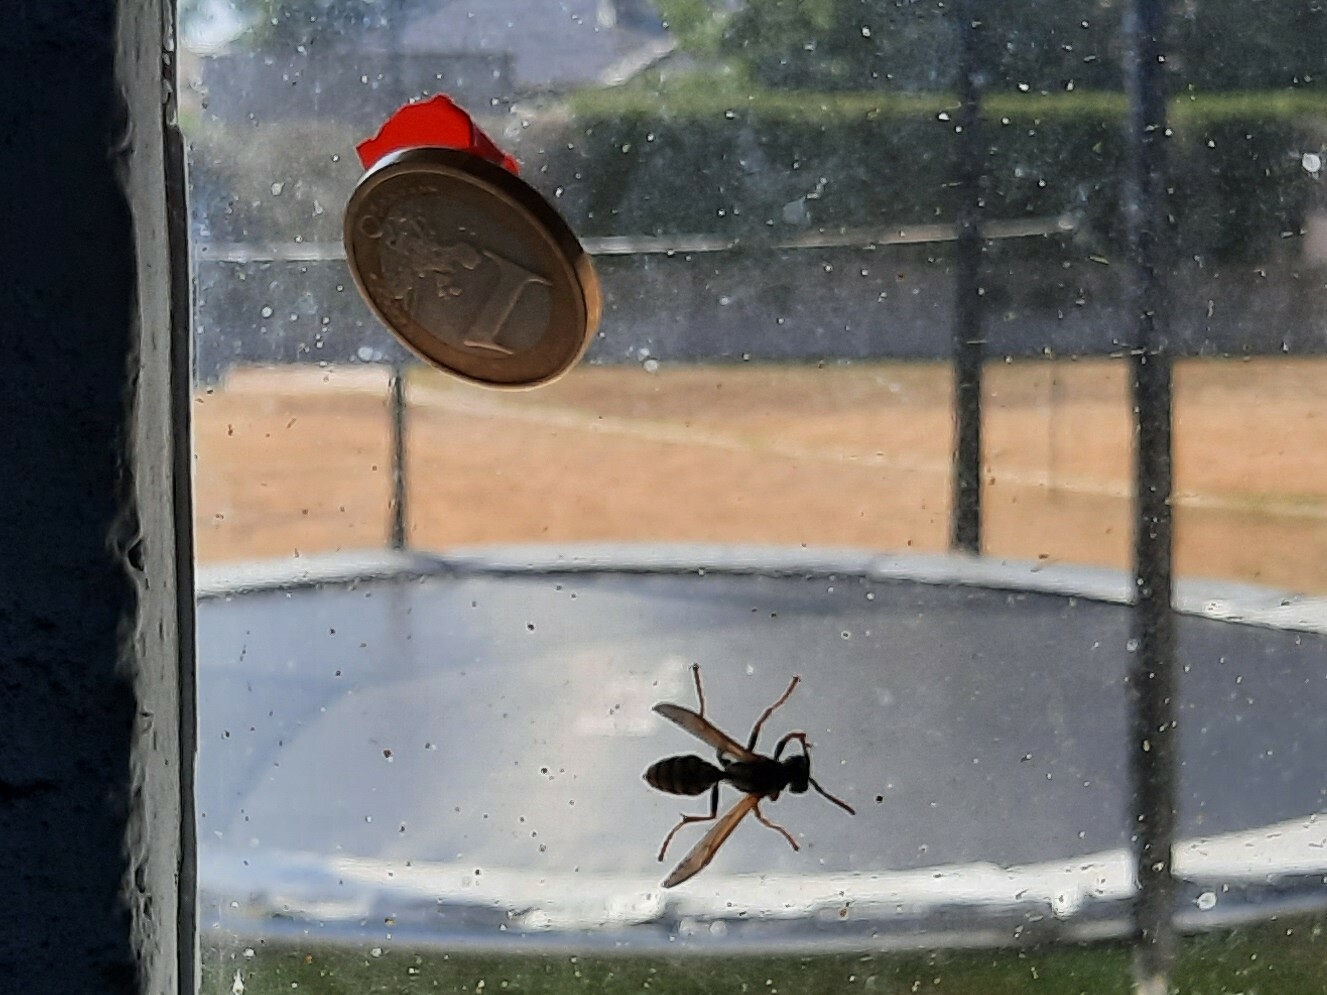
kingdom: Animalia
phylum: Arthropoda
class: Insecta
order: Hymenoptera
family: Eumenidae
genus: Polistes
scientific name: Polistes dominula
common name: Paper wasp
